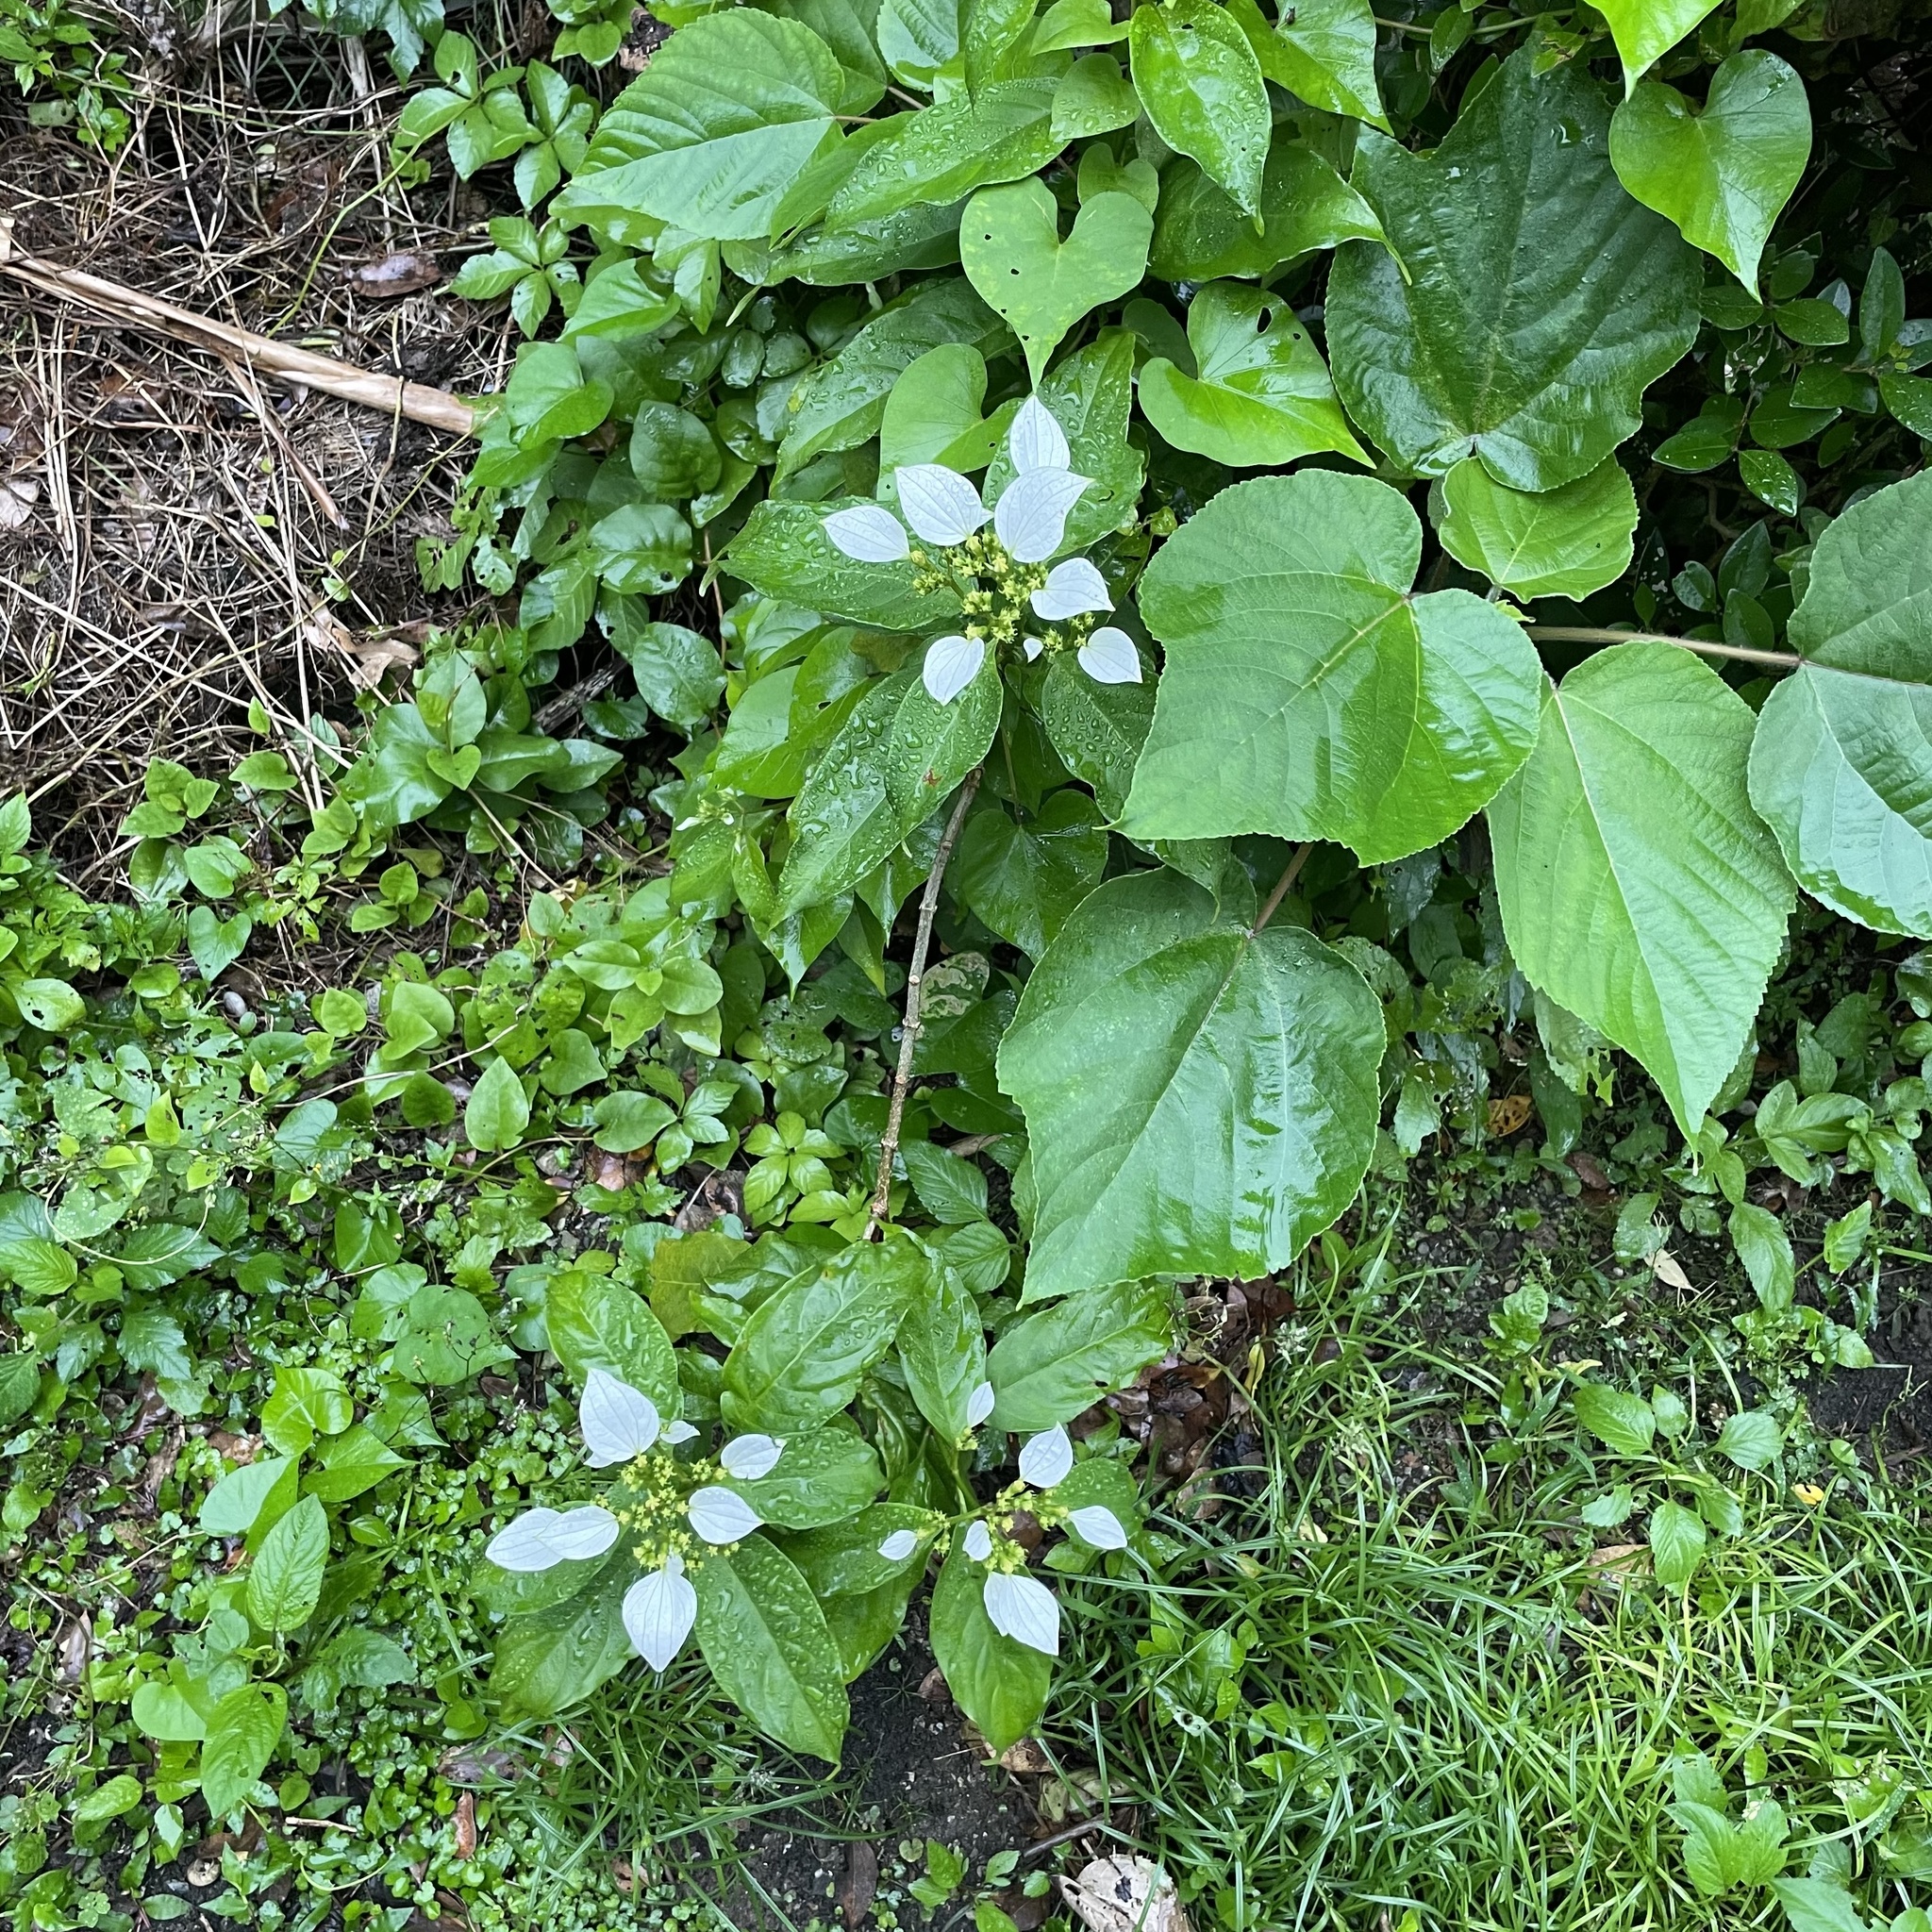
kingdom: Plantae
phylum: Tracheophyta
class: Magnoliopsida
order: Gentianales
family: Rubiaceae
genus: Mussaenda
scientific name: Mussaenda parviflora
